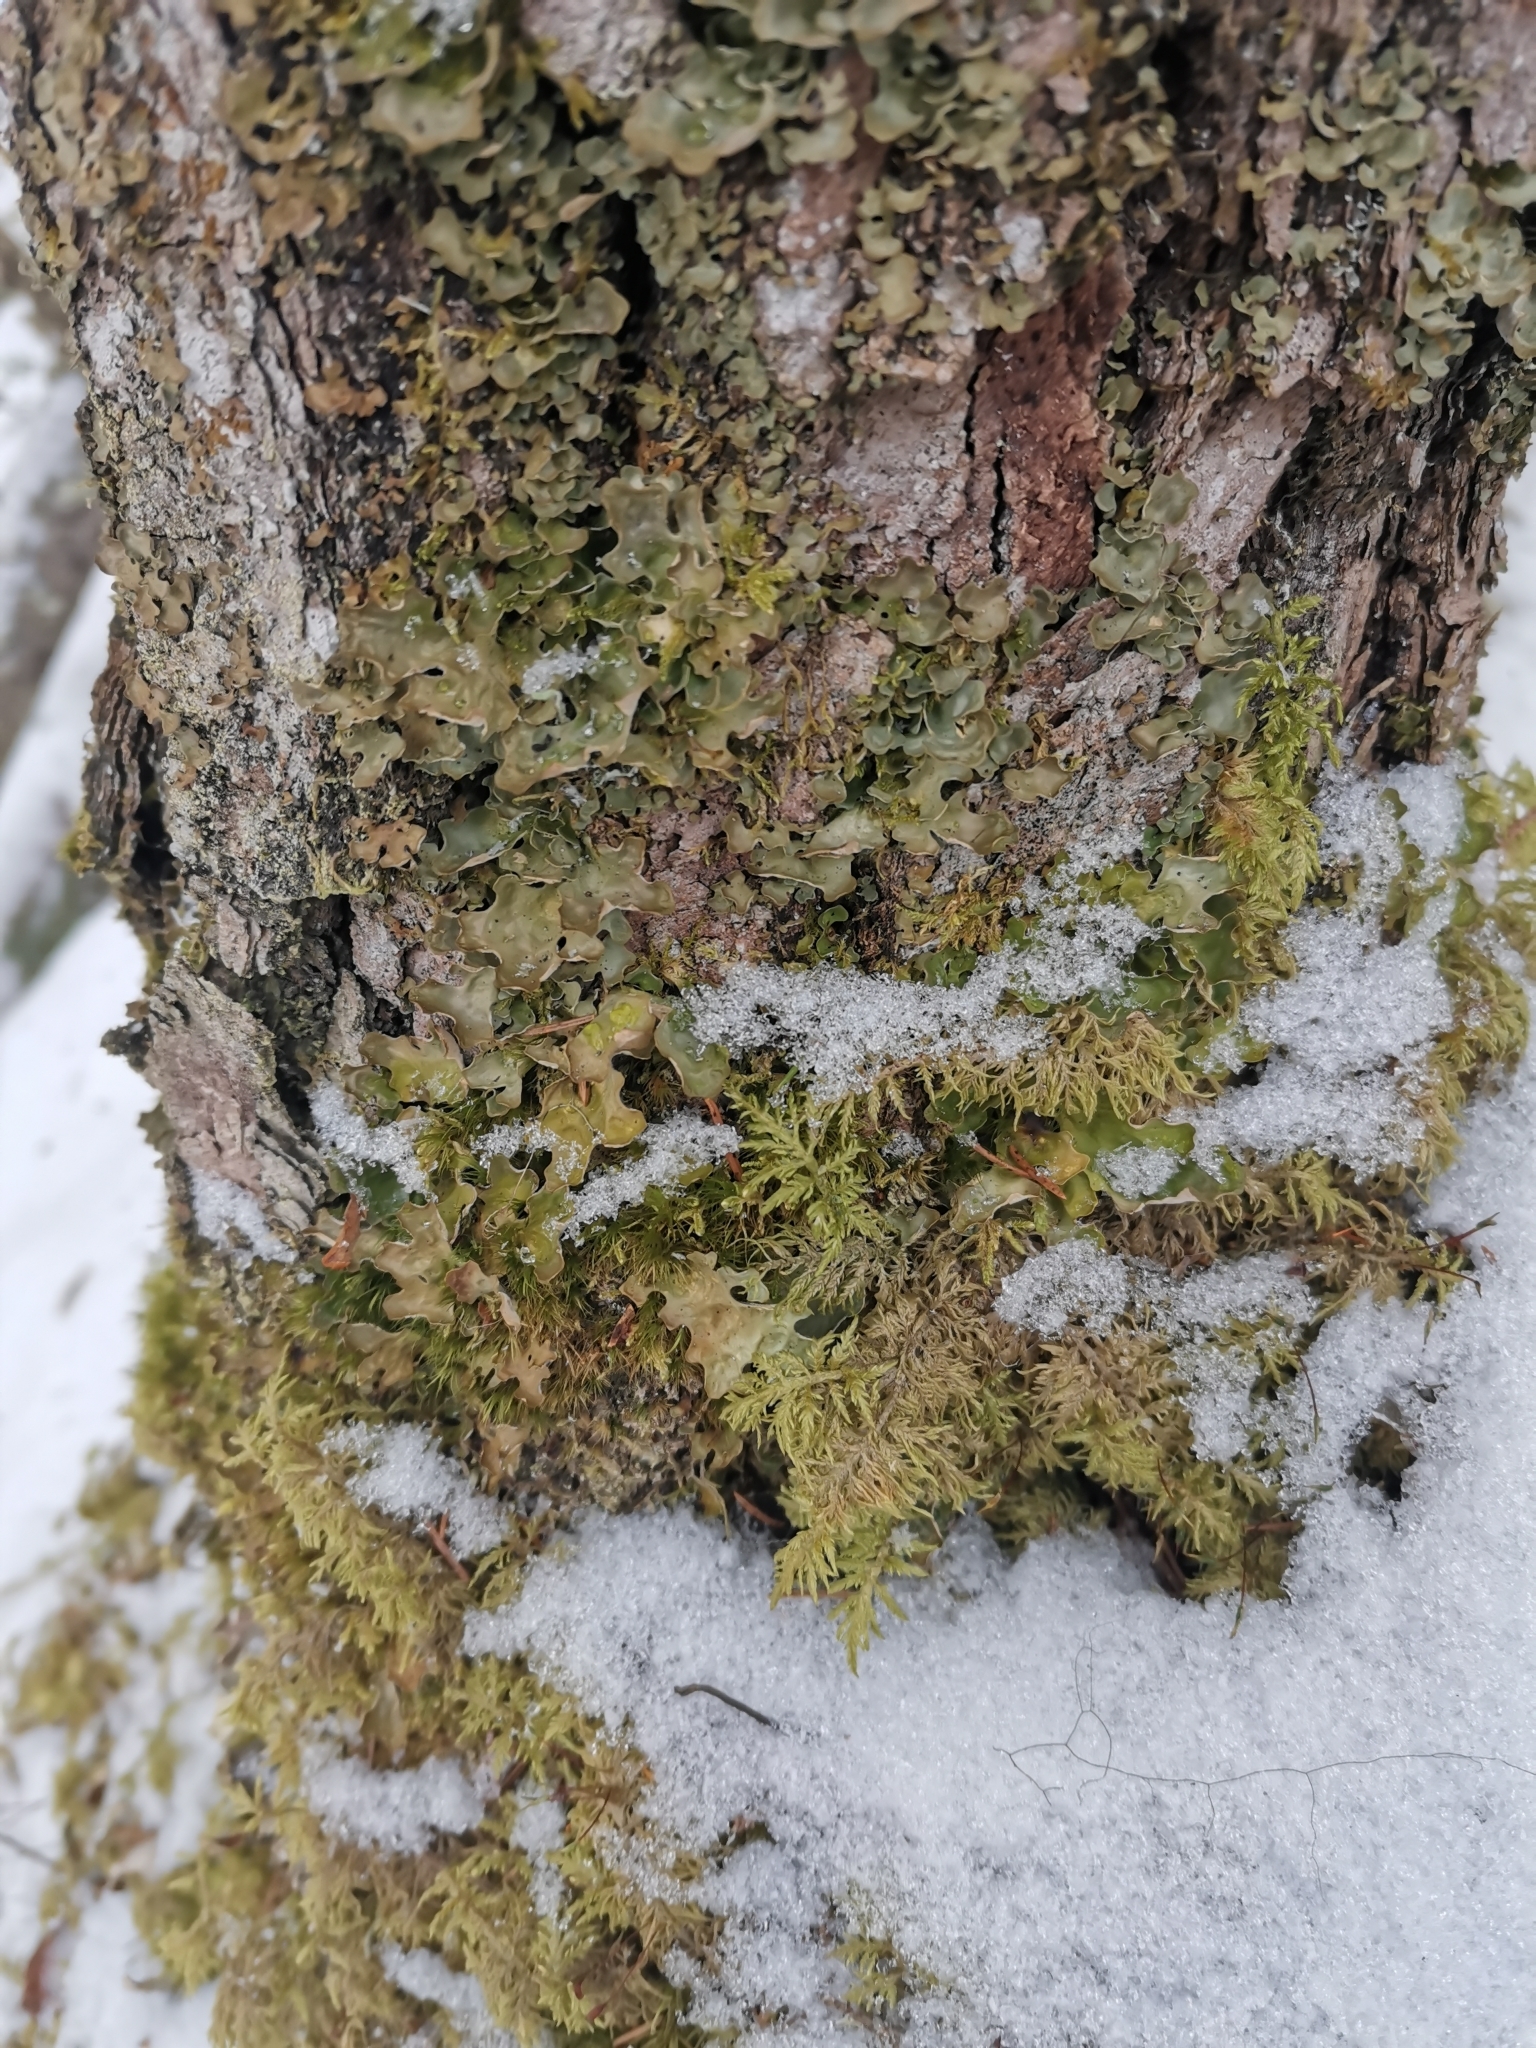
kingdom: Fungi
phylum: Ascomycota
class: Lecanoromycetes
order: Peltigerales
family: Lobariaceae
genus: Lobaria
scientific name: Lobaria pulmonaria
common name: Lungwort
